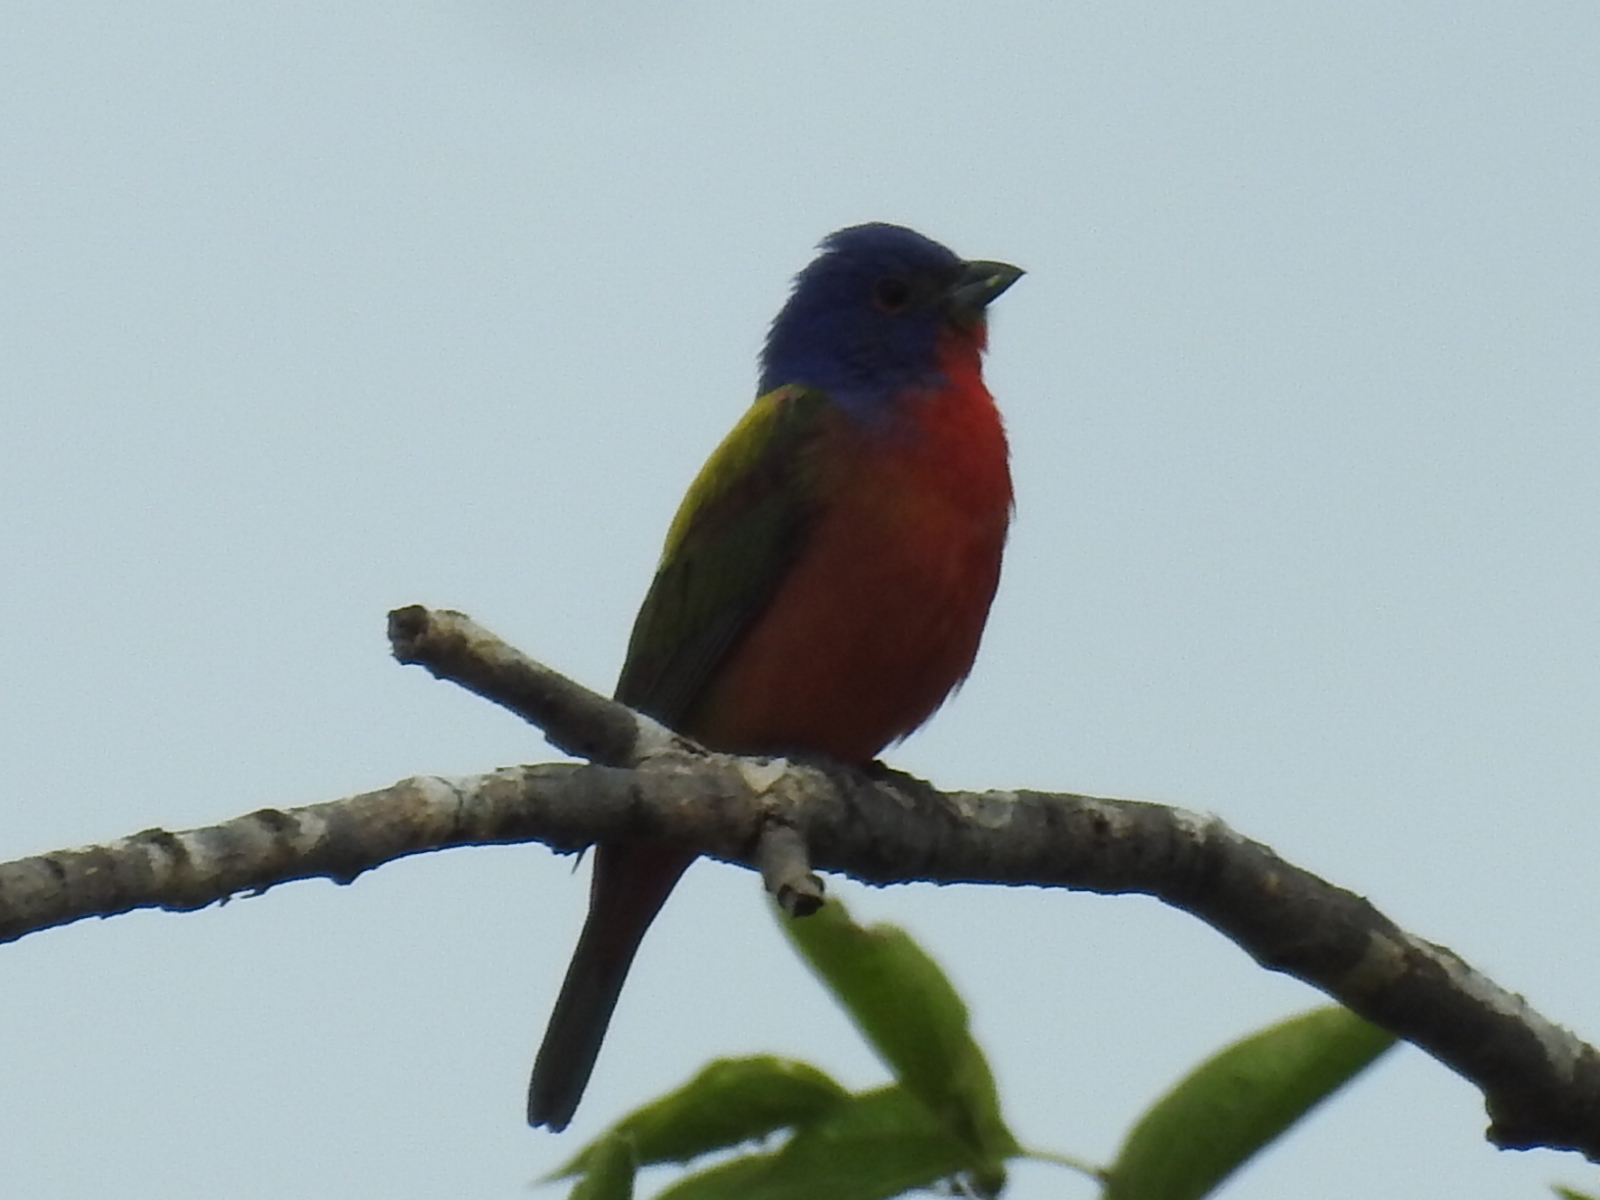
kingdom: Animalia
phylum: Chordata
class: Aves
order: Passeriformes
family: Cardinalidae
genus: Passerina
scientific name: Passerina ciris
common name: Painted bunting
